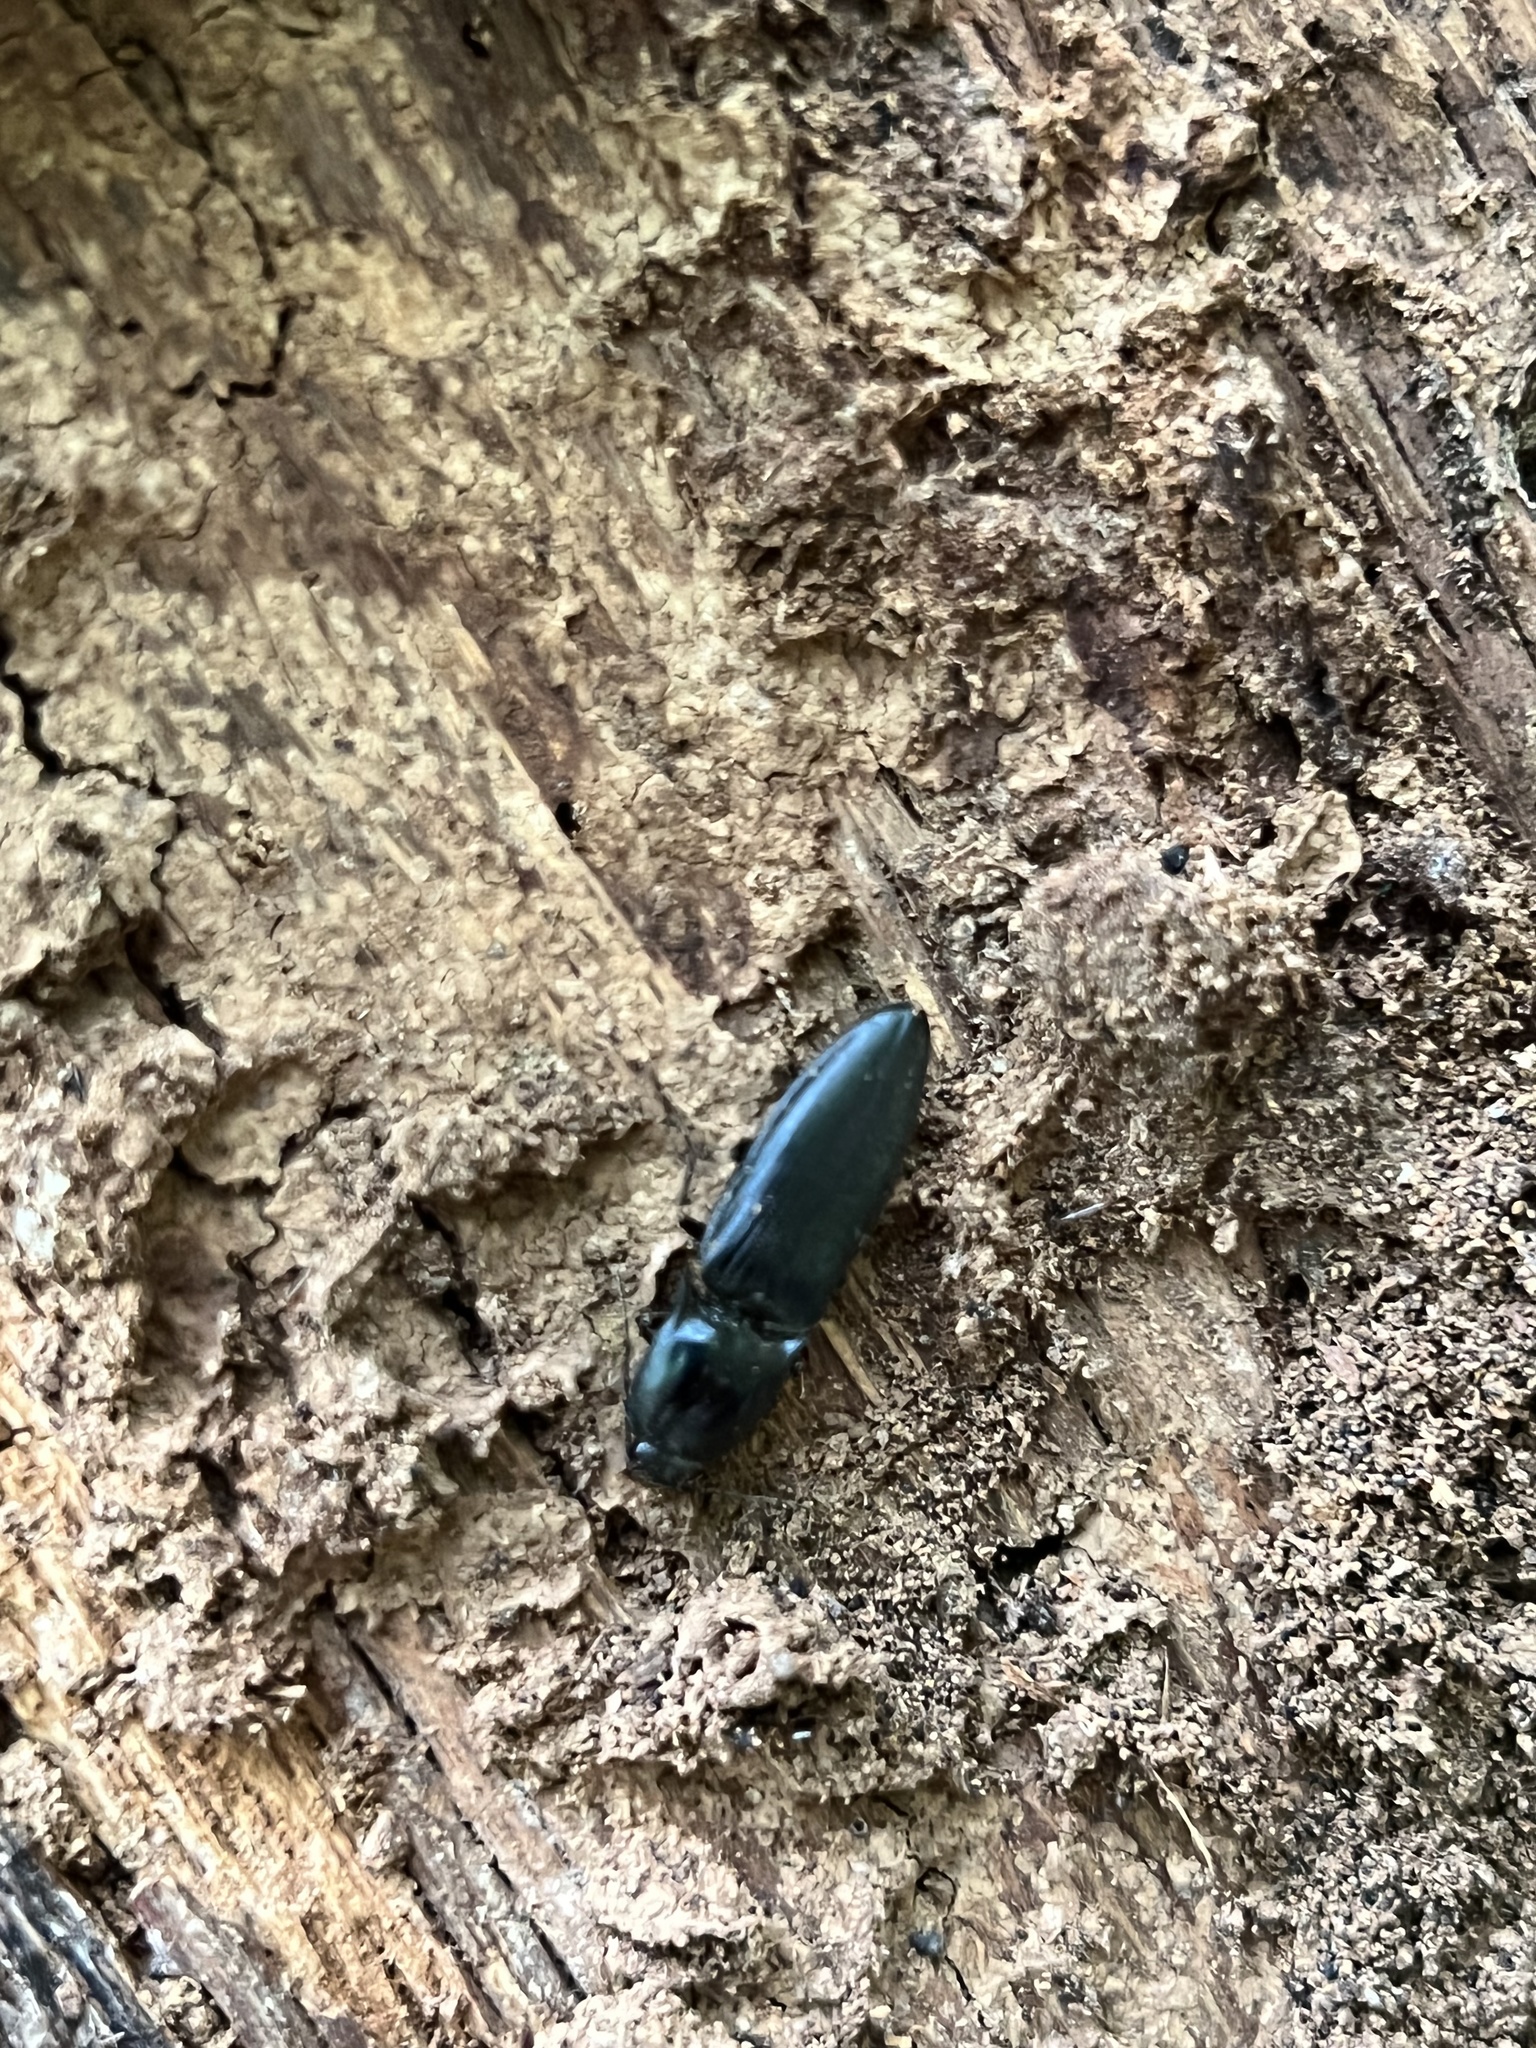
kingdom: Animalia
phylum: Arthropoda
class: Insecta
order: Coleoptera
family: Elateridae
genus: Neopristilophus
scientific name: Neopristilophus
